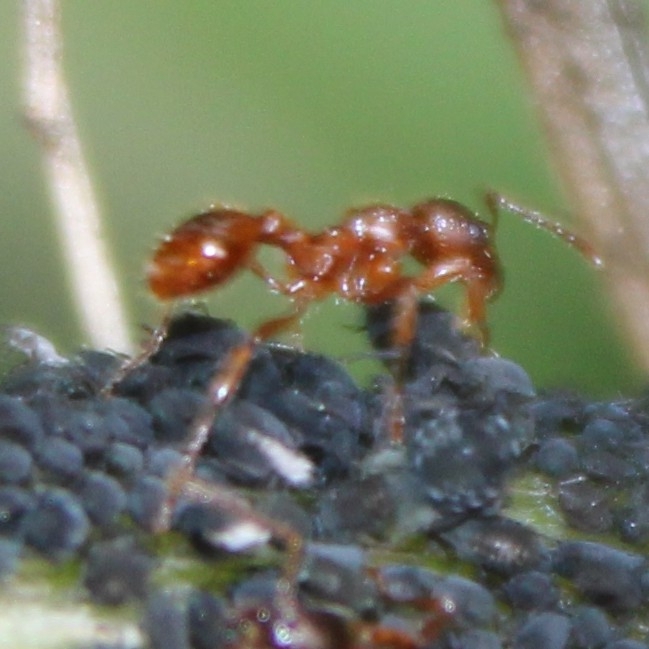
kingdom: Animalia
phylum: Arthropoda
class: Insecta
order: Hymenoptera
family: Formicidae
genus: Myrmica
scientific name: Myrmica rubra
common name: European fire ant
